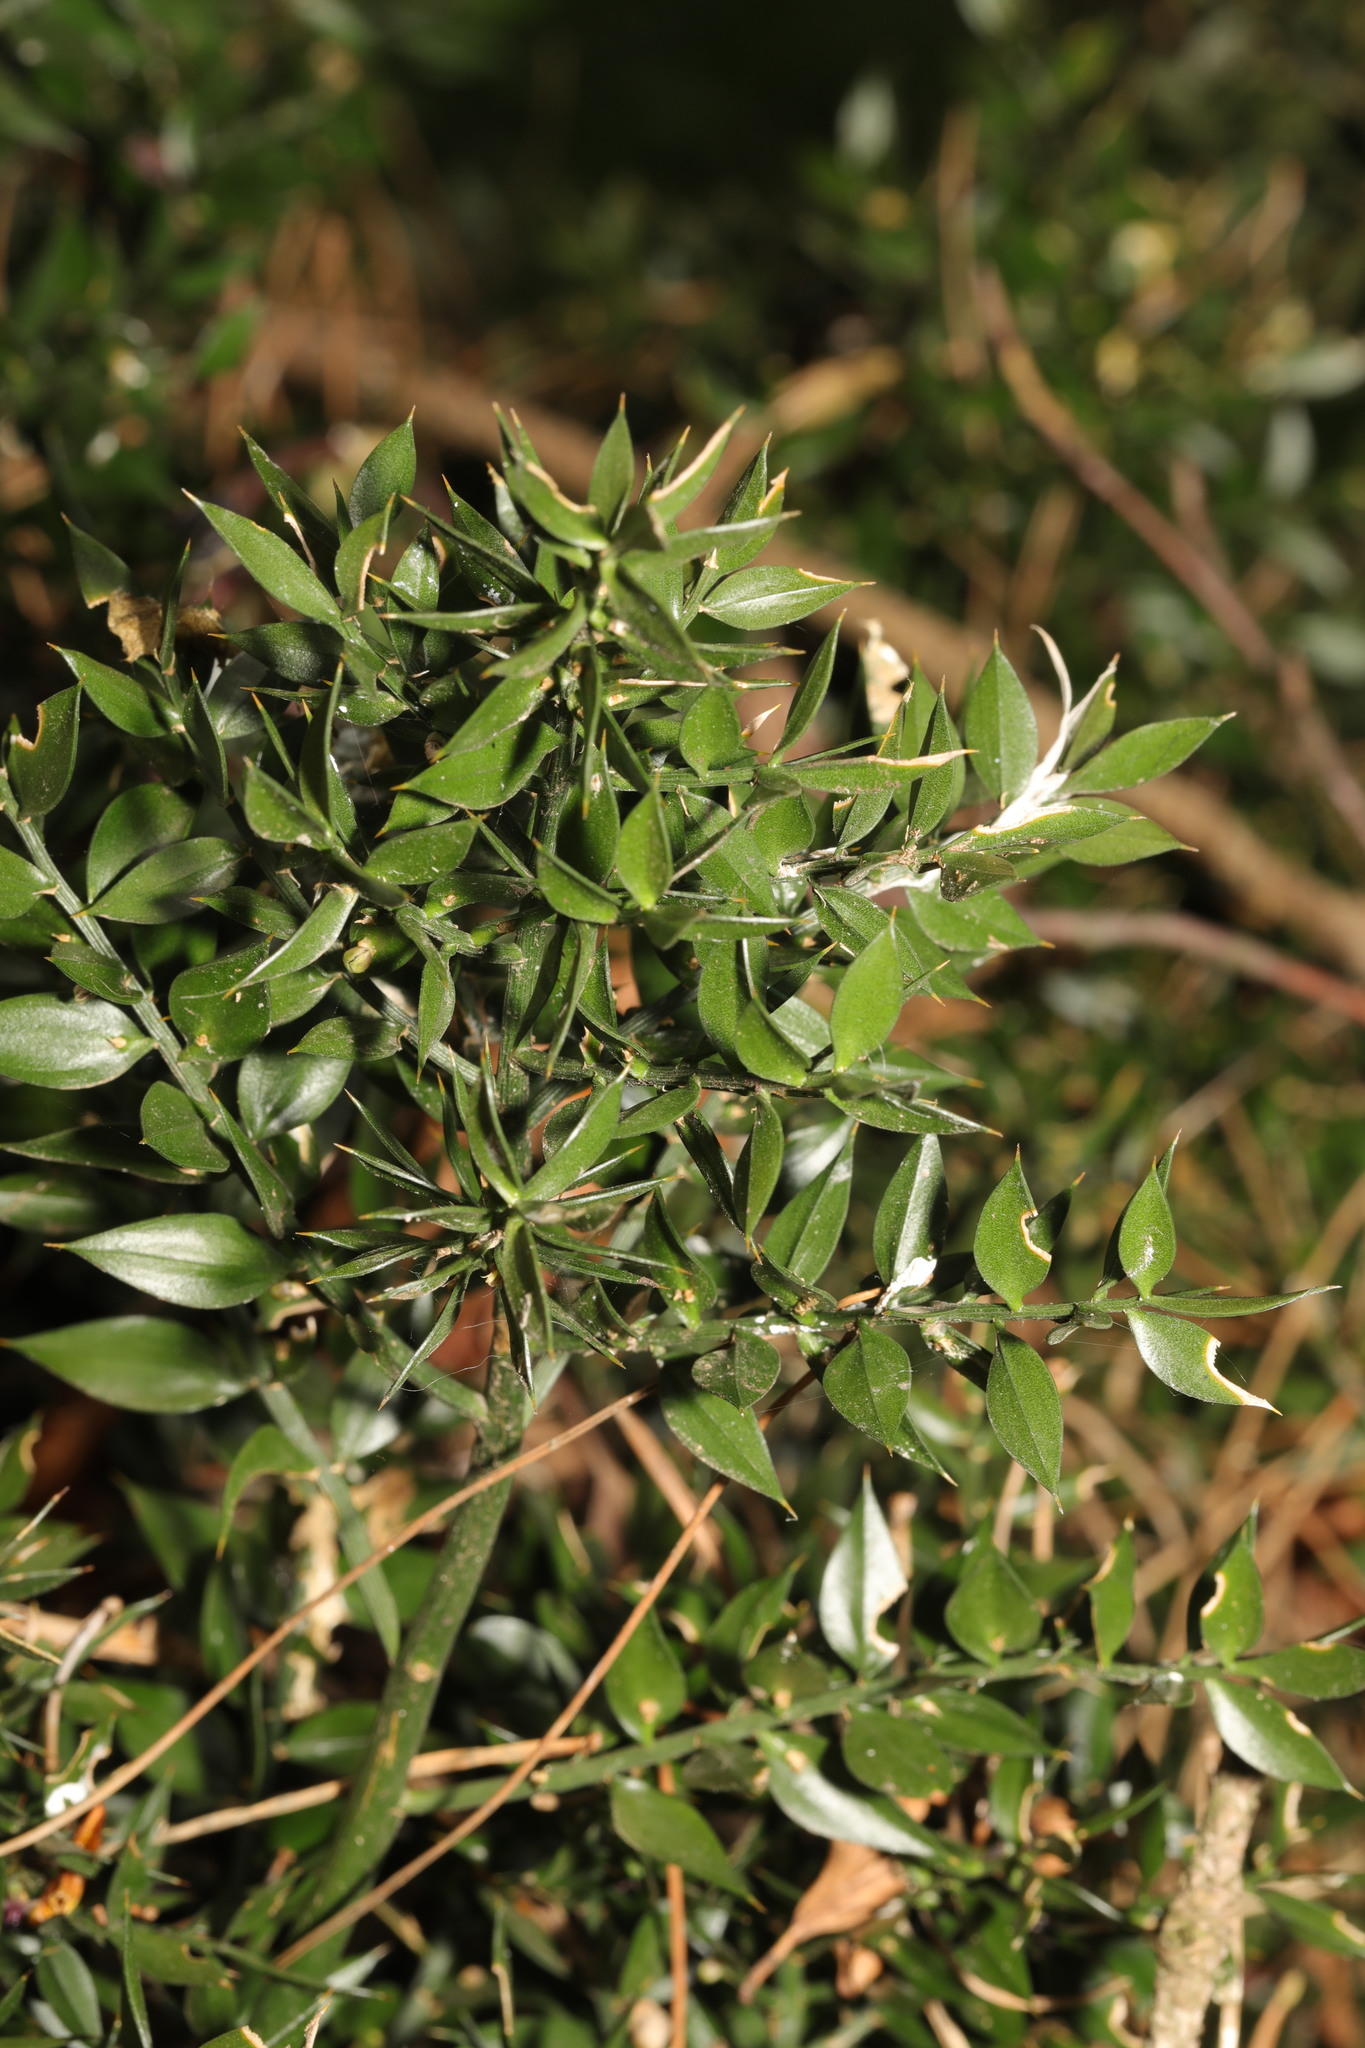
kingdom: Plantae
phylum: Tracheophyta
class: Liliopsida
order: Asparagales
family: Asparagaceae
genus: Ruscus
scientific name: Ruscus aculeatus
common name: Butcher's-broom
